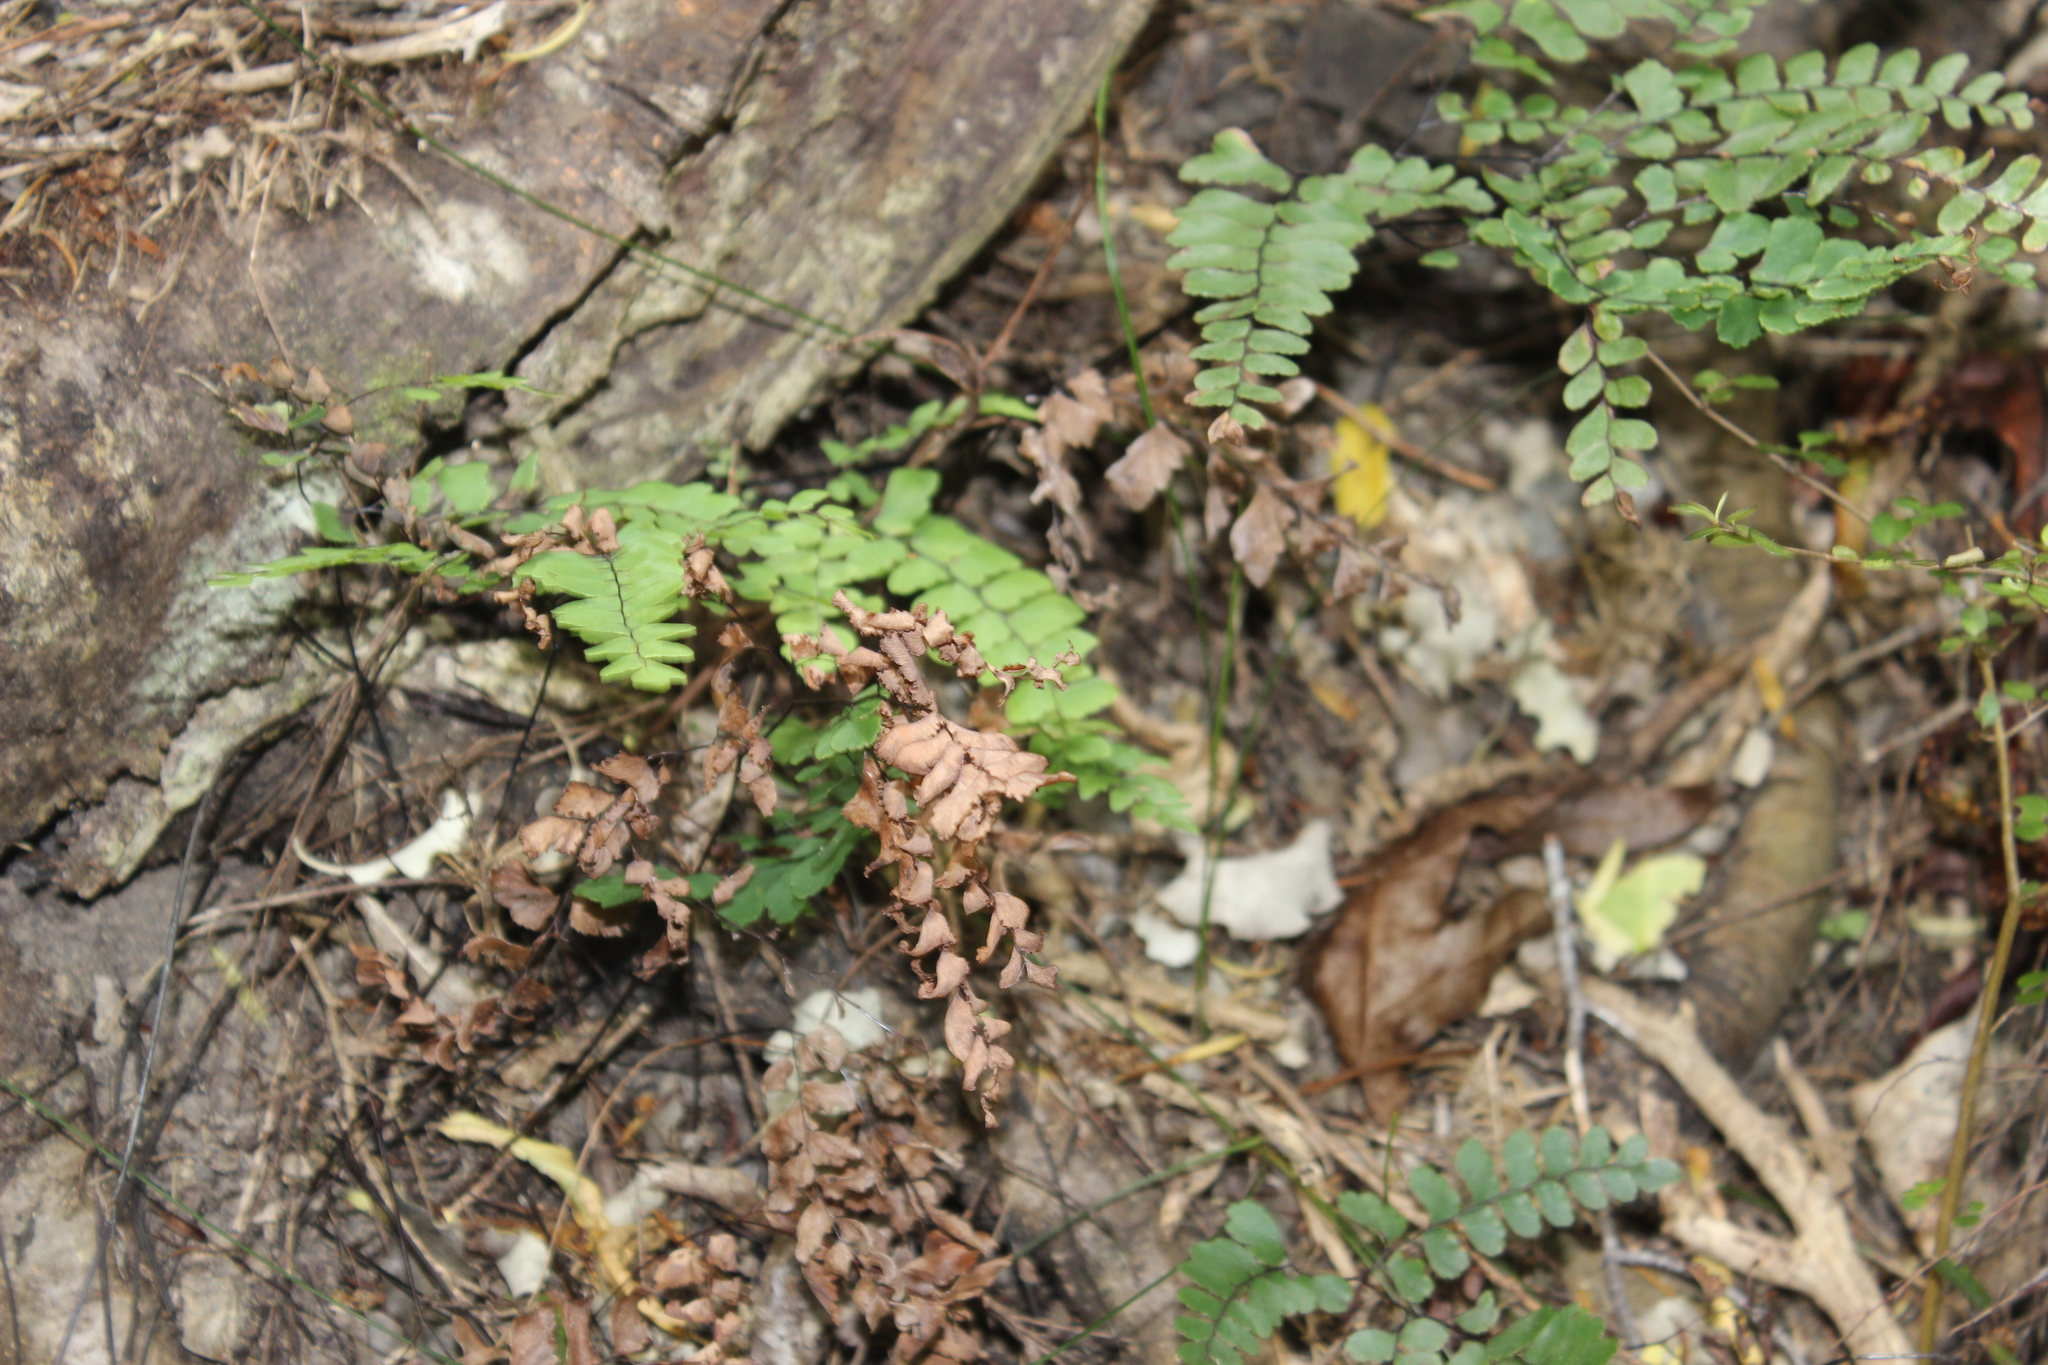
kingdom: Plantae
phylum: Tracheophyta
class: Polypodiopsida
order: Polypodiales
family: Pteridaceae
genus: Adiantum
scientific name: Adiantum cunninghamii
